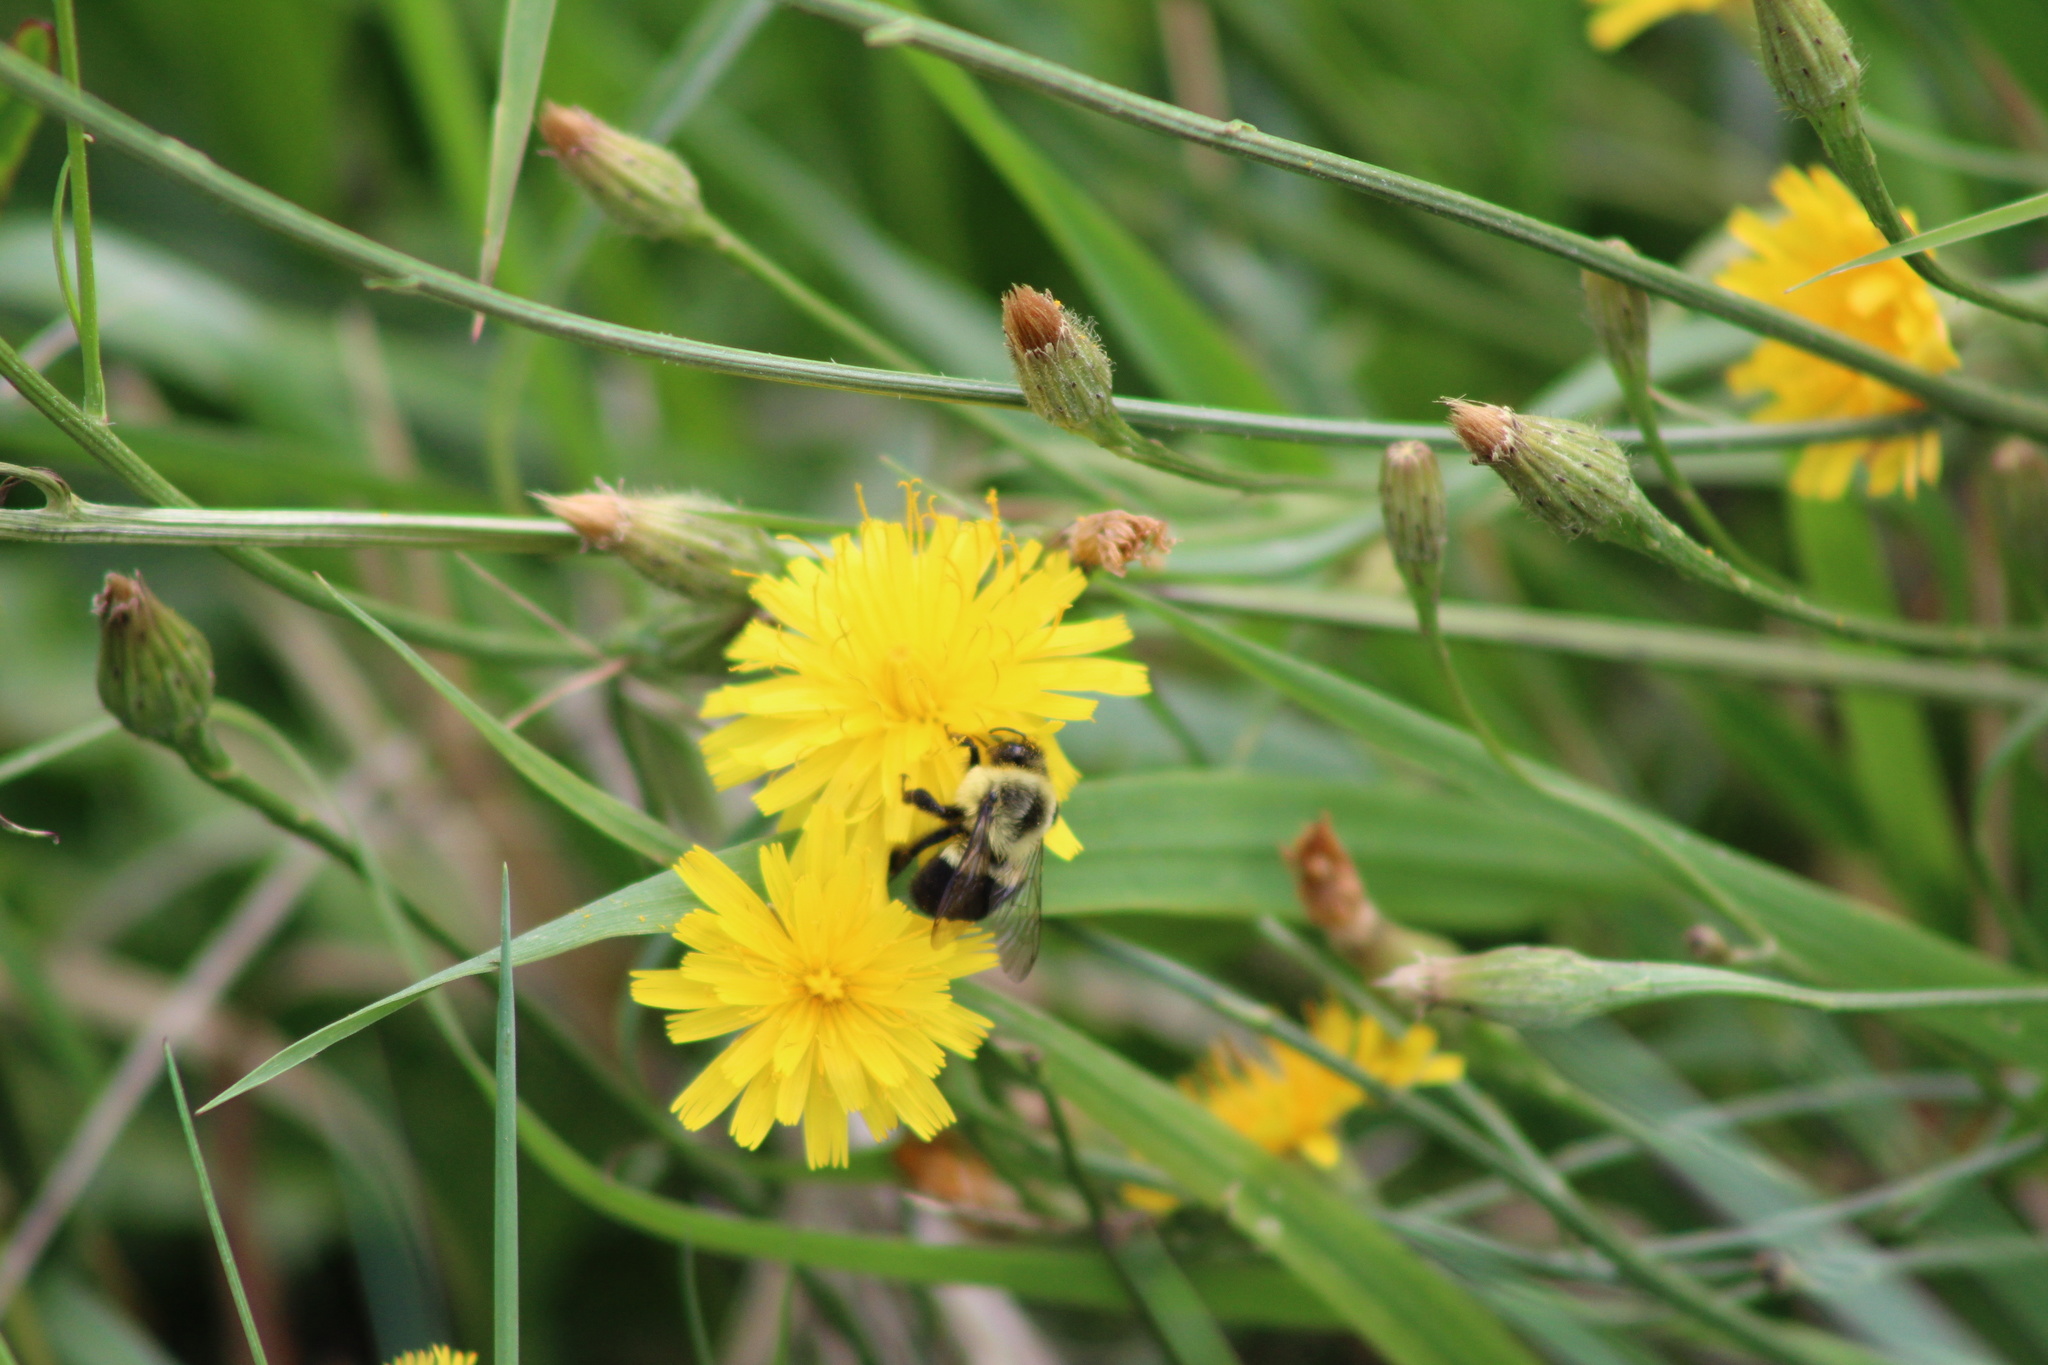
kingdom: Animalia
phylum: Arthropoda
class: Insecta
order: Hymenoptera
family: Apidae
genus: Bombus
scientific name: Bombus impatiens
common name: Common eastern bumble bee
